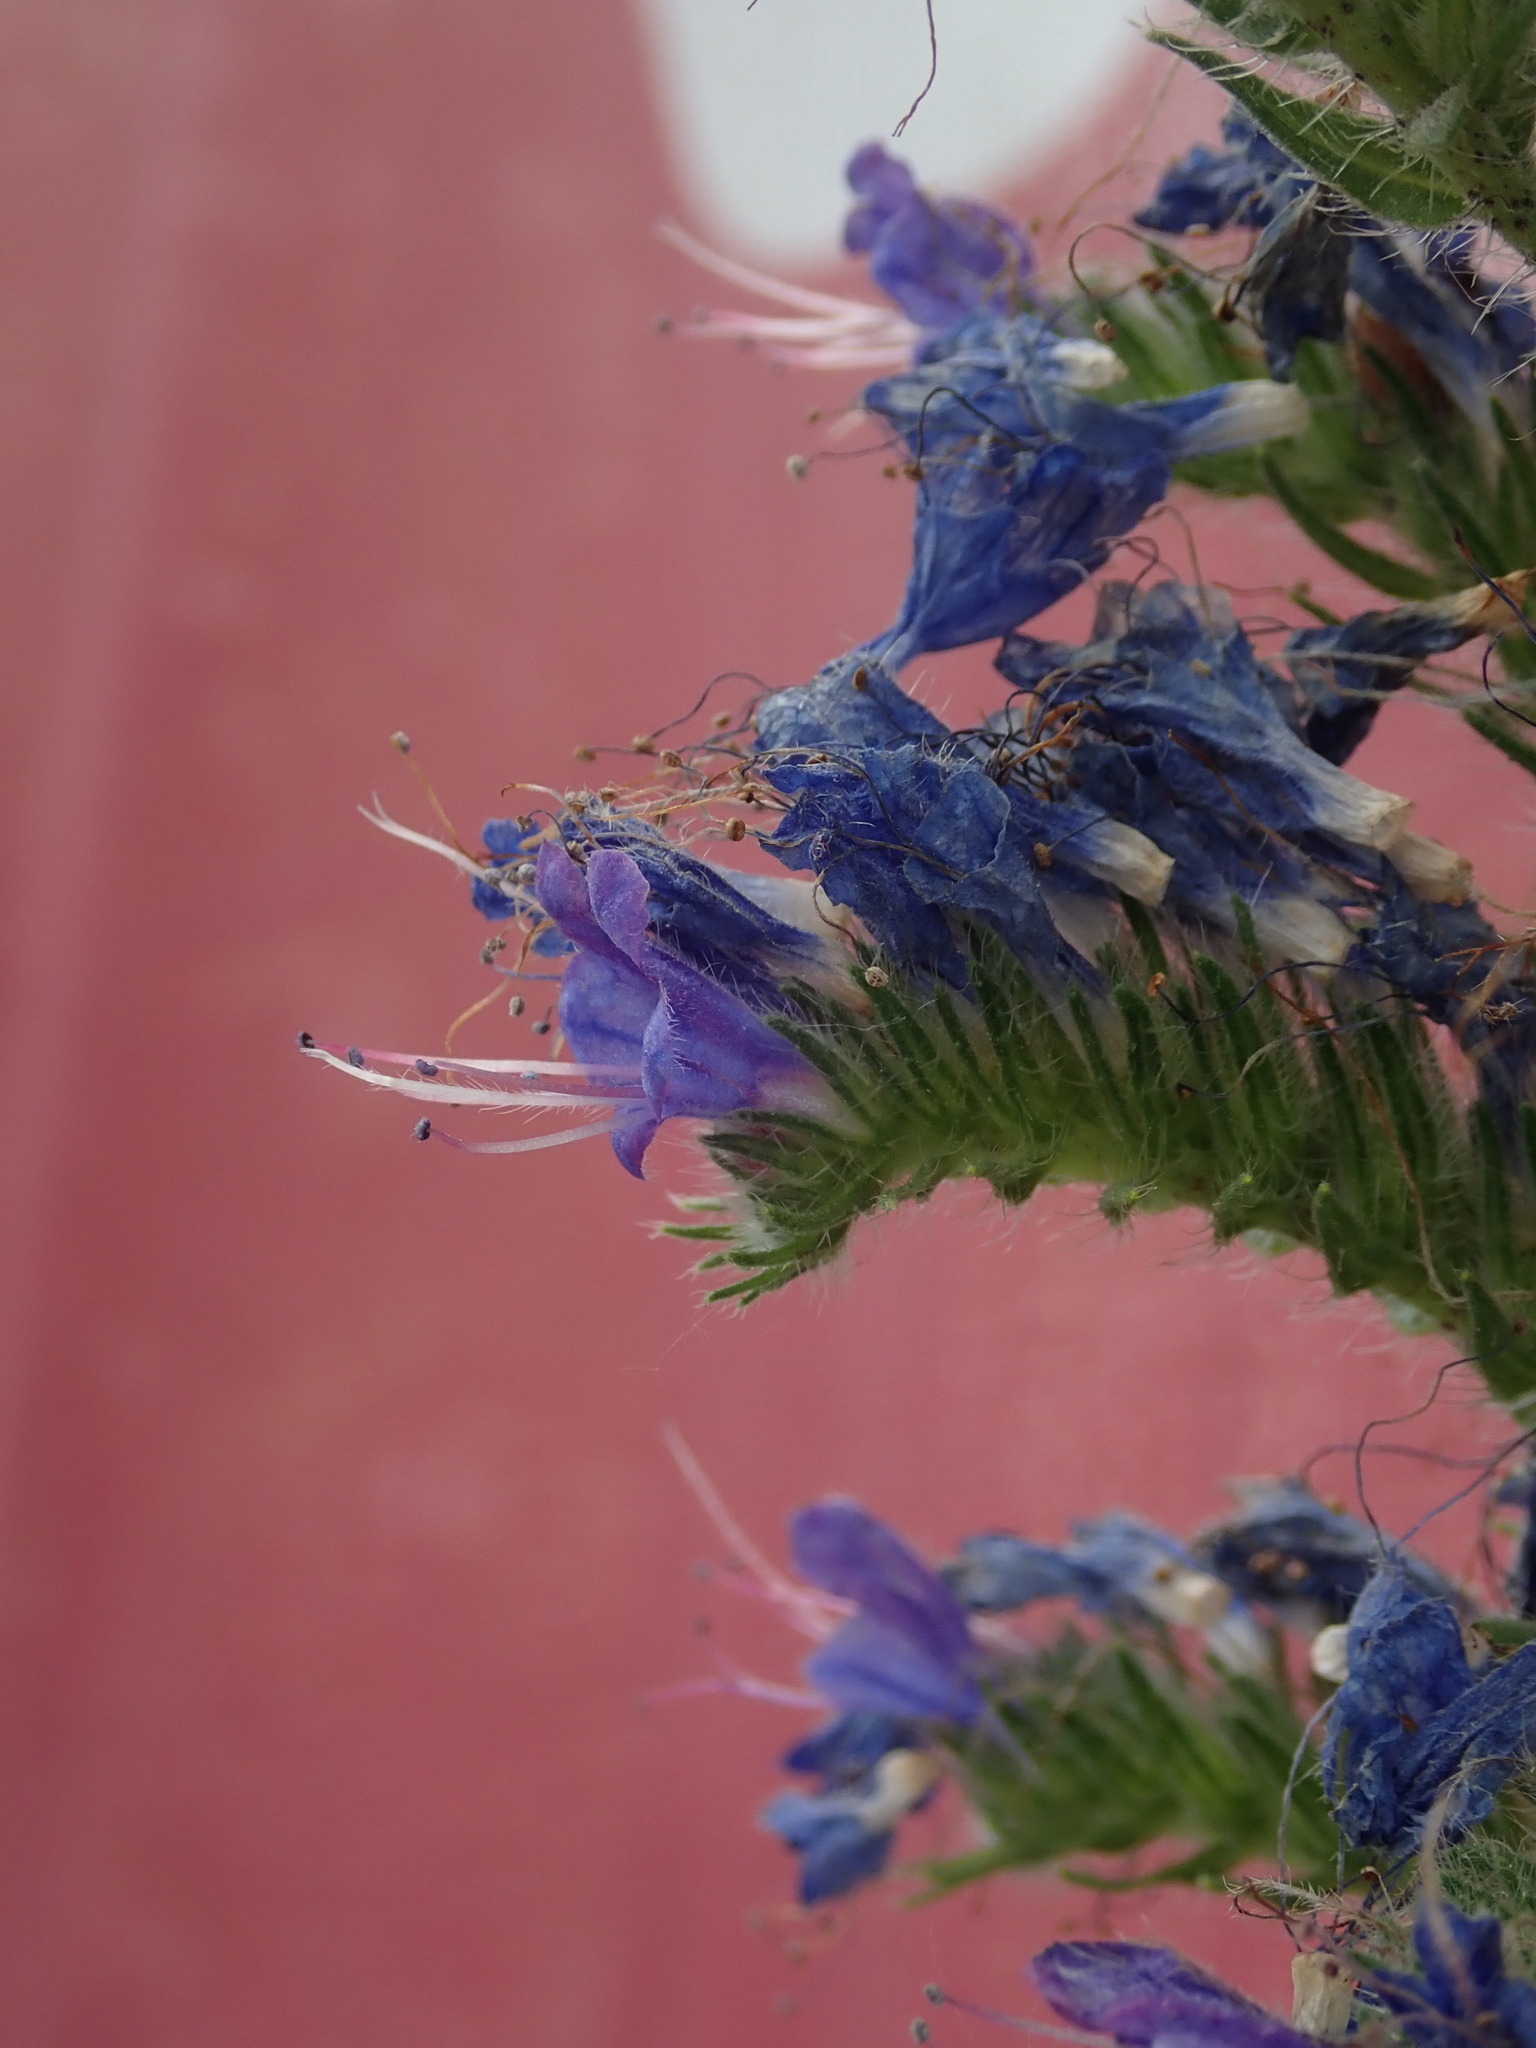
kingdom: Plantae
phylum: Tracheophyta
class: Magnoliopsida
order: Boraginales
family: Boraginaceae
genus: Echium
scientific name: Echium vulgare
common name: Common viper's bugloss
